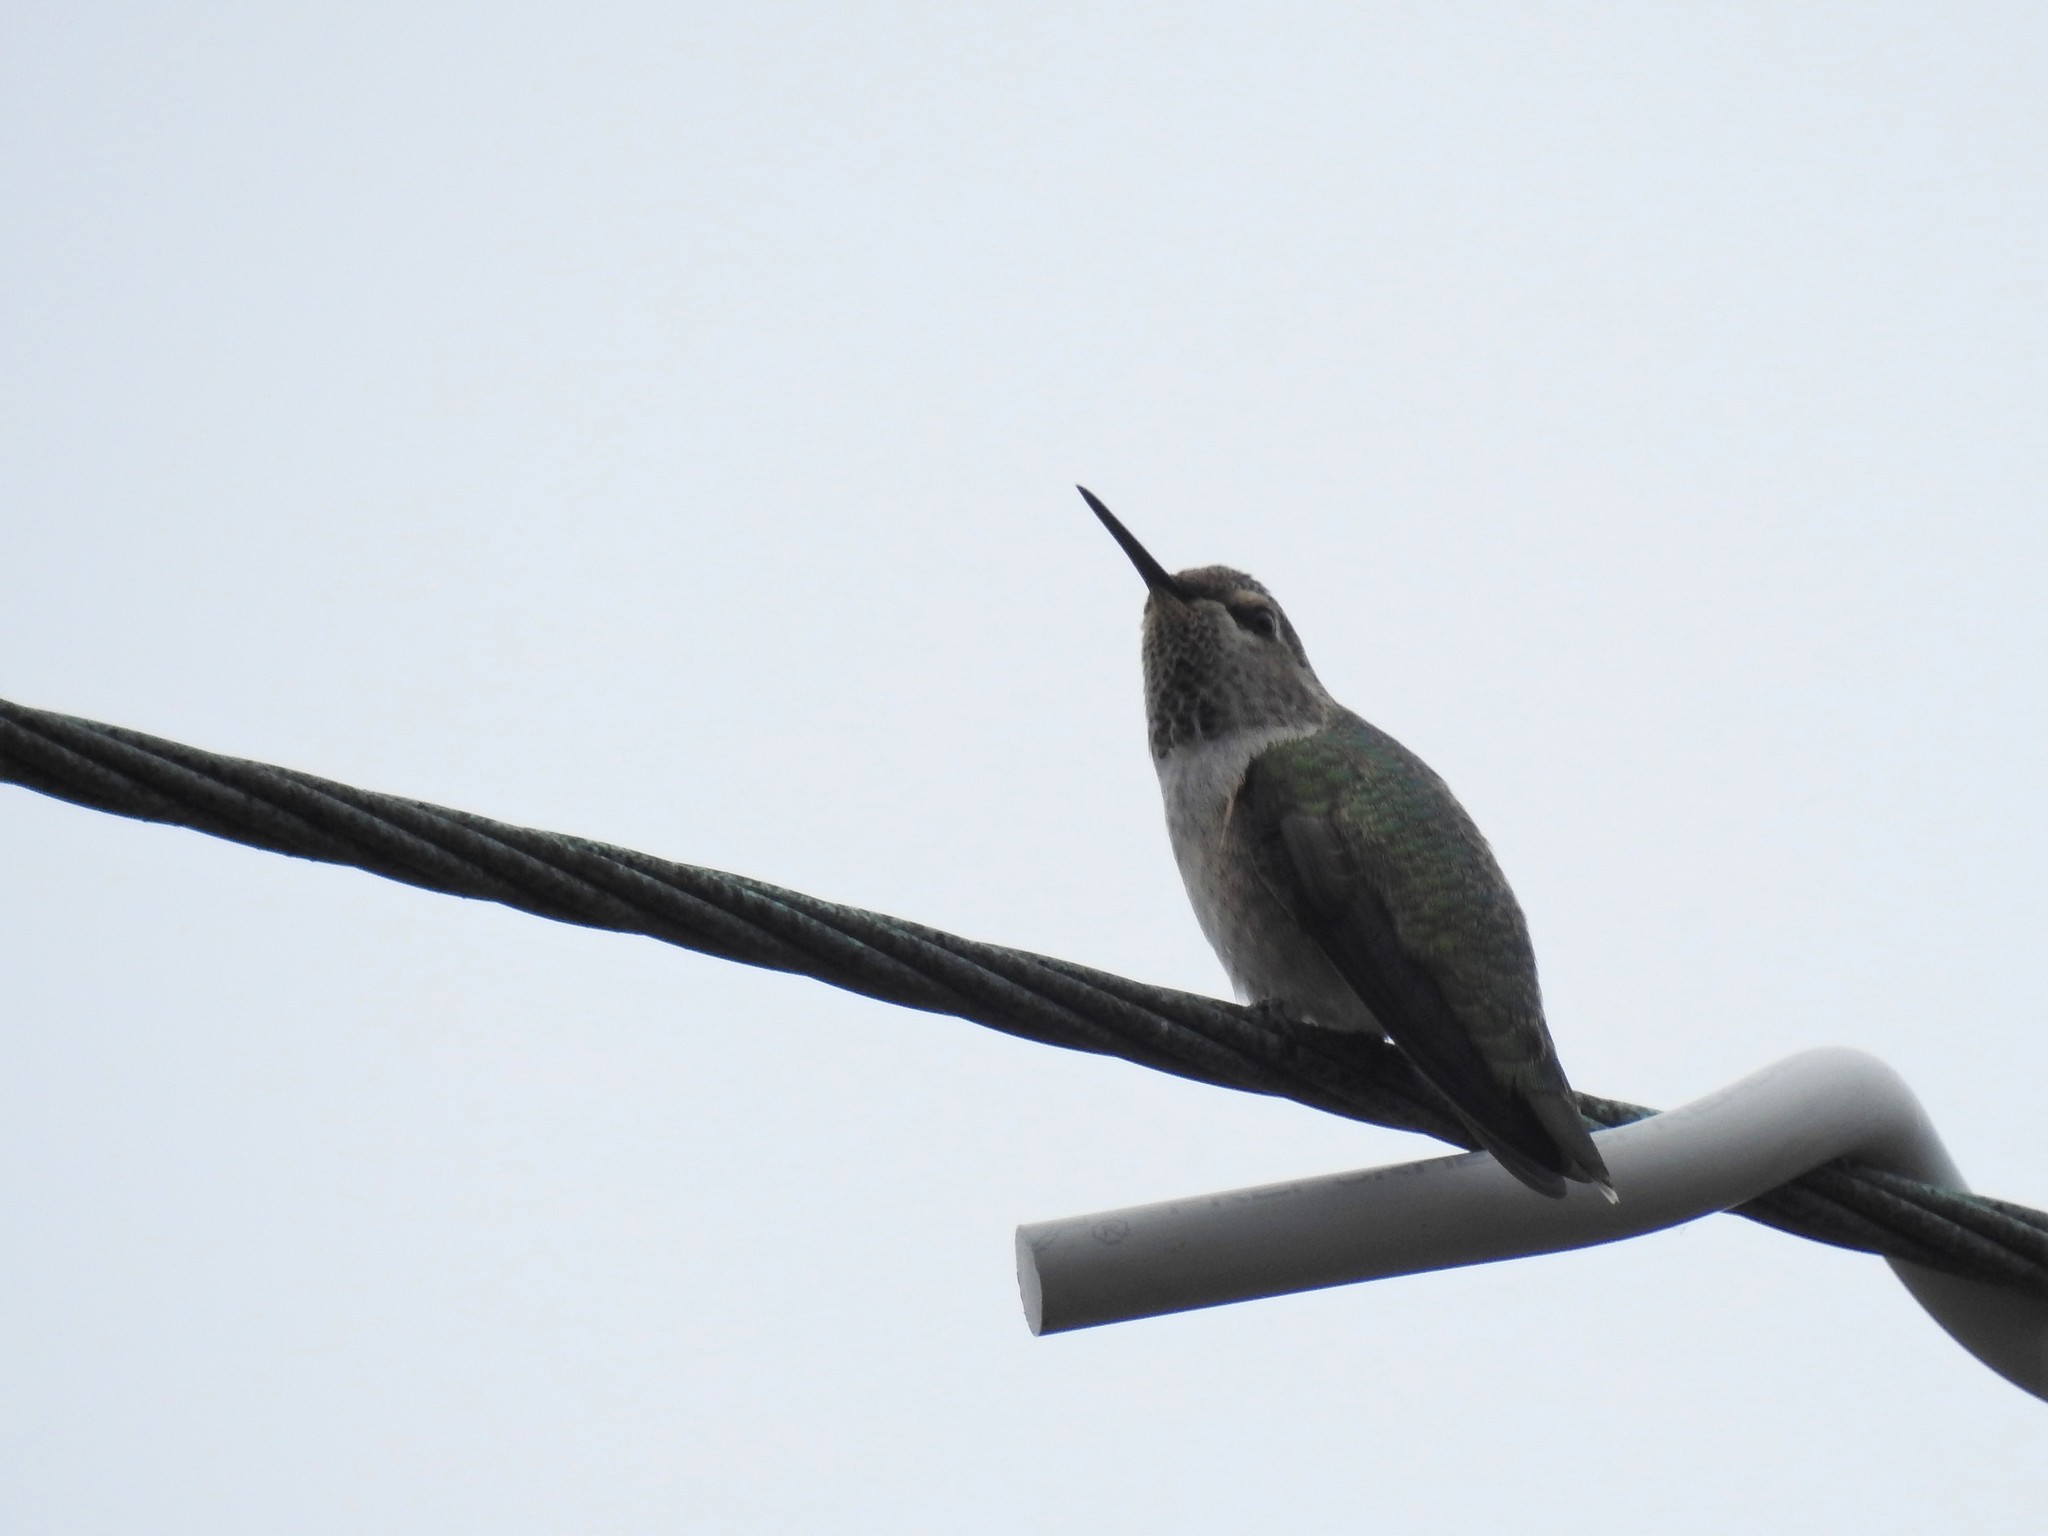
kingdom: Animalia
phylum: Chordata
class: Aves
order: Apodiformes
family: Trochilidae
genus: Calypte
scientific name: Calypte anna
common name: Anna's hummingbird
